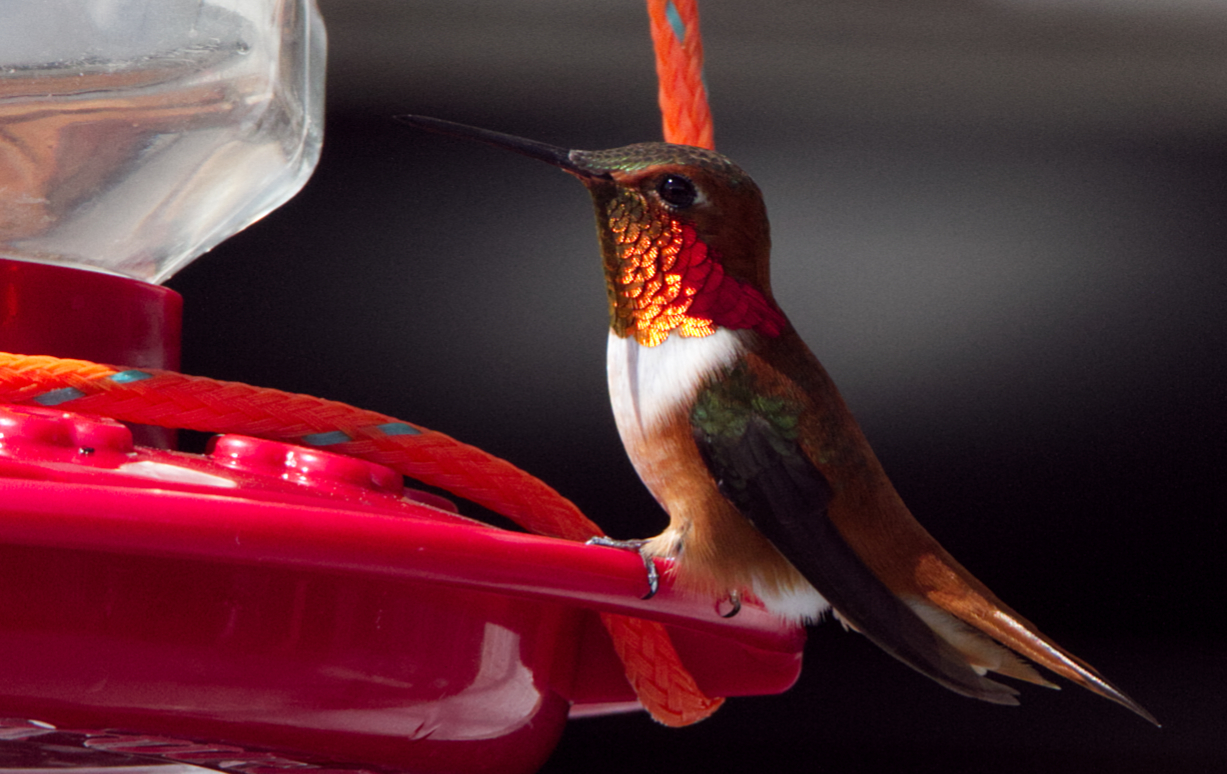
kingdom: Animalia
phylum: Chordata
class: Aves
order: Apodiformes
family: Trochilidae
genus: Selasphorus
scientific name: Selasphorus rufus
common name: Rufous hummingbird
